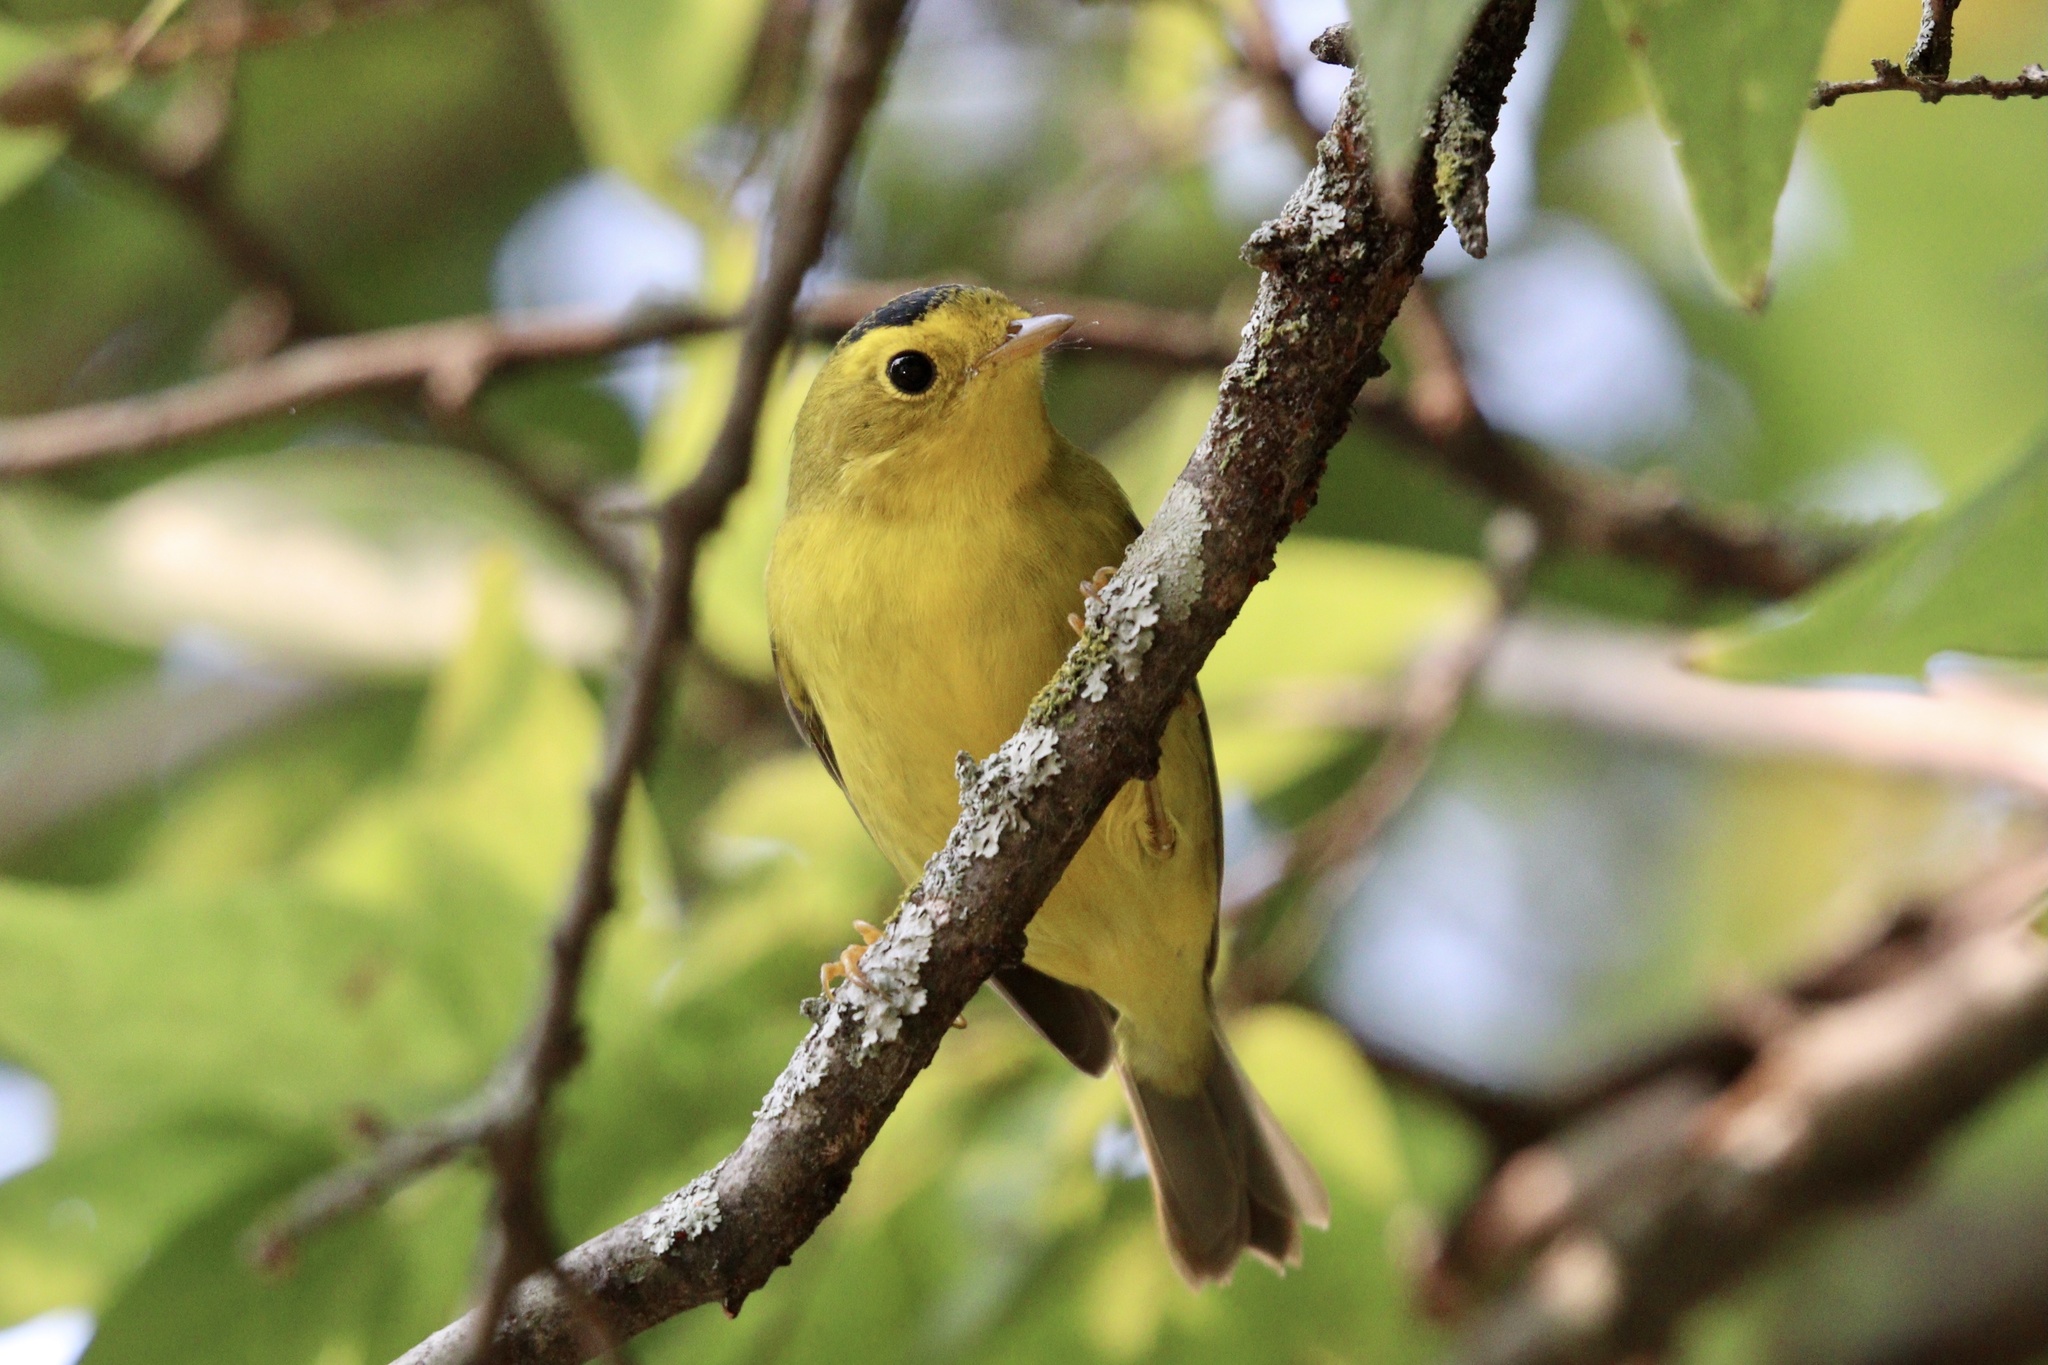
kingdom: Animalia
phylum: Chordata
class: Aves
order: Passeriformes
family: Parulidae
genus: Cardellina
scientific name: Cardellina pusilla
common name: Wilson's warbler
